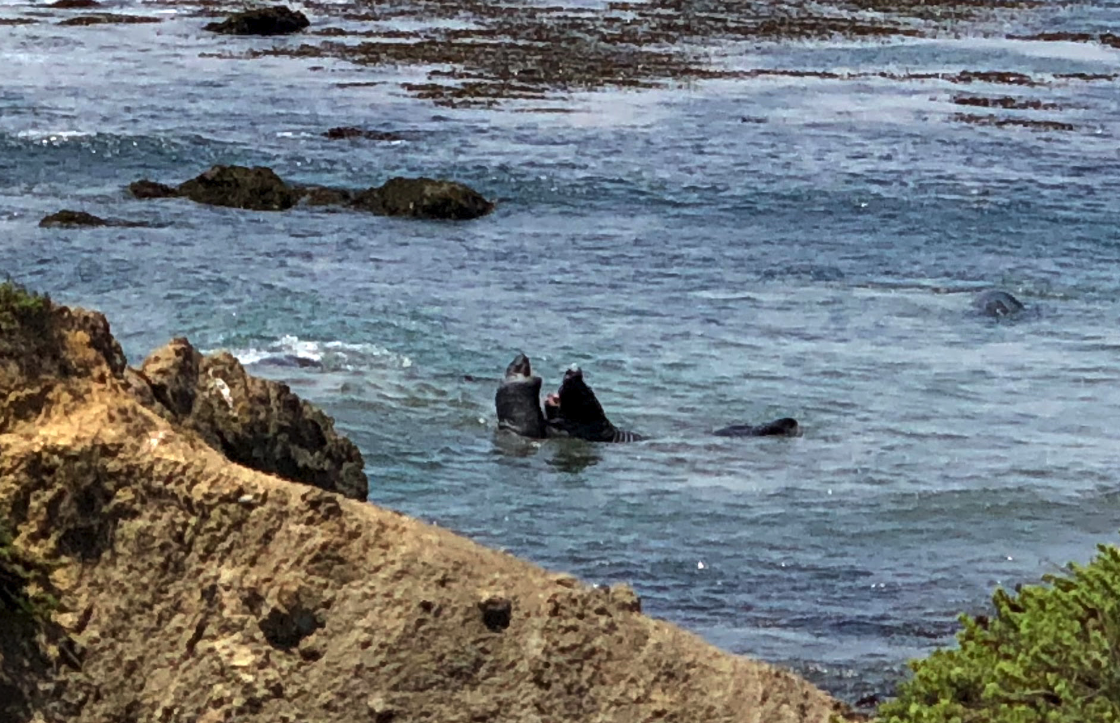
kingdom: Animalia
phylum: Chordata
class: Mammalia
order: Carnivora
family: Phocidae
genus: Mirounga
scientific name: Mirounga angustirostris
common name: Northern elephant seal
